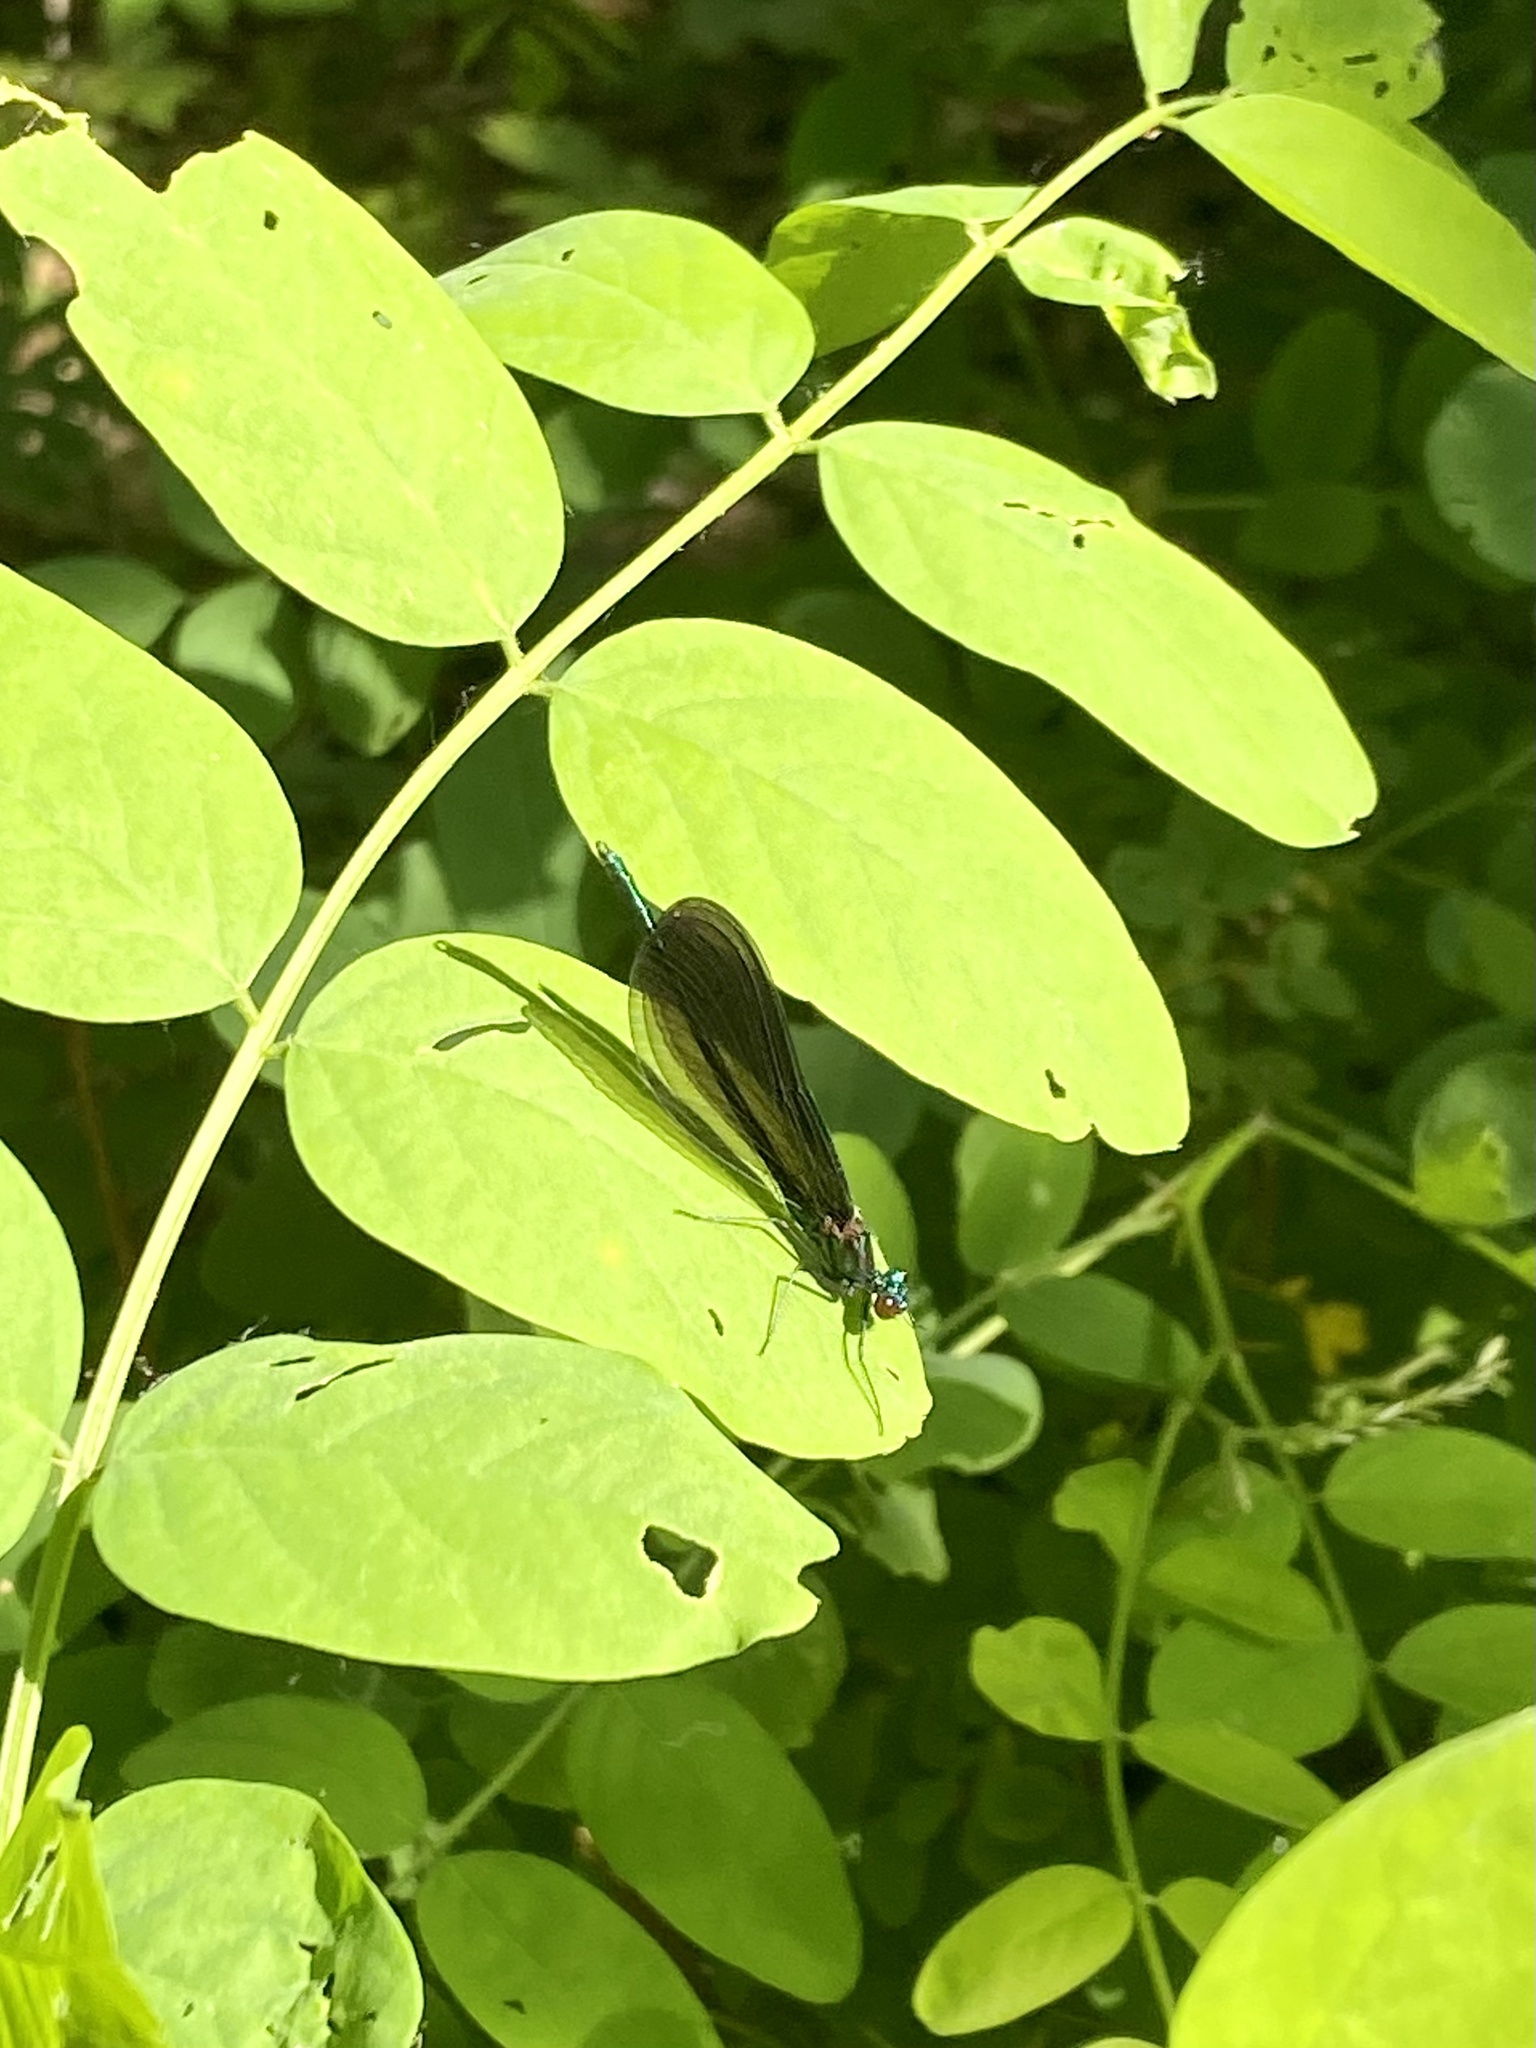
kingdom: Animalia
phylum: Arthropoda
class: Insecta
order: Odonata
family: Calopterygidae
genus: Calopteryx
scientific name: Calopteryx maculata
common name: Ebony jewelwing
